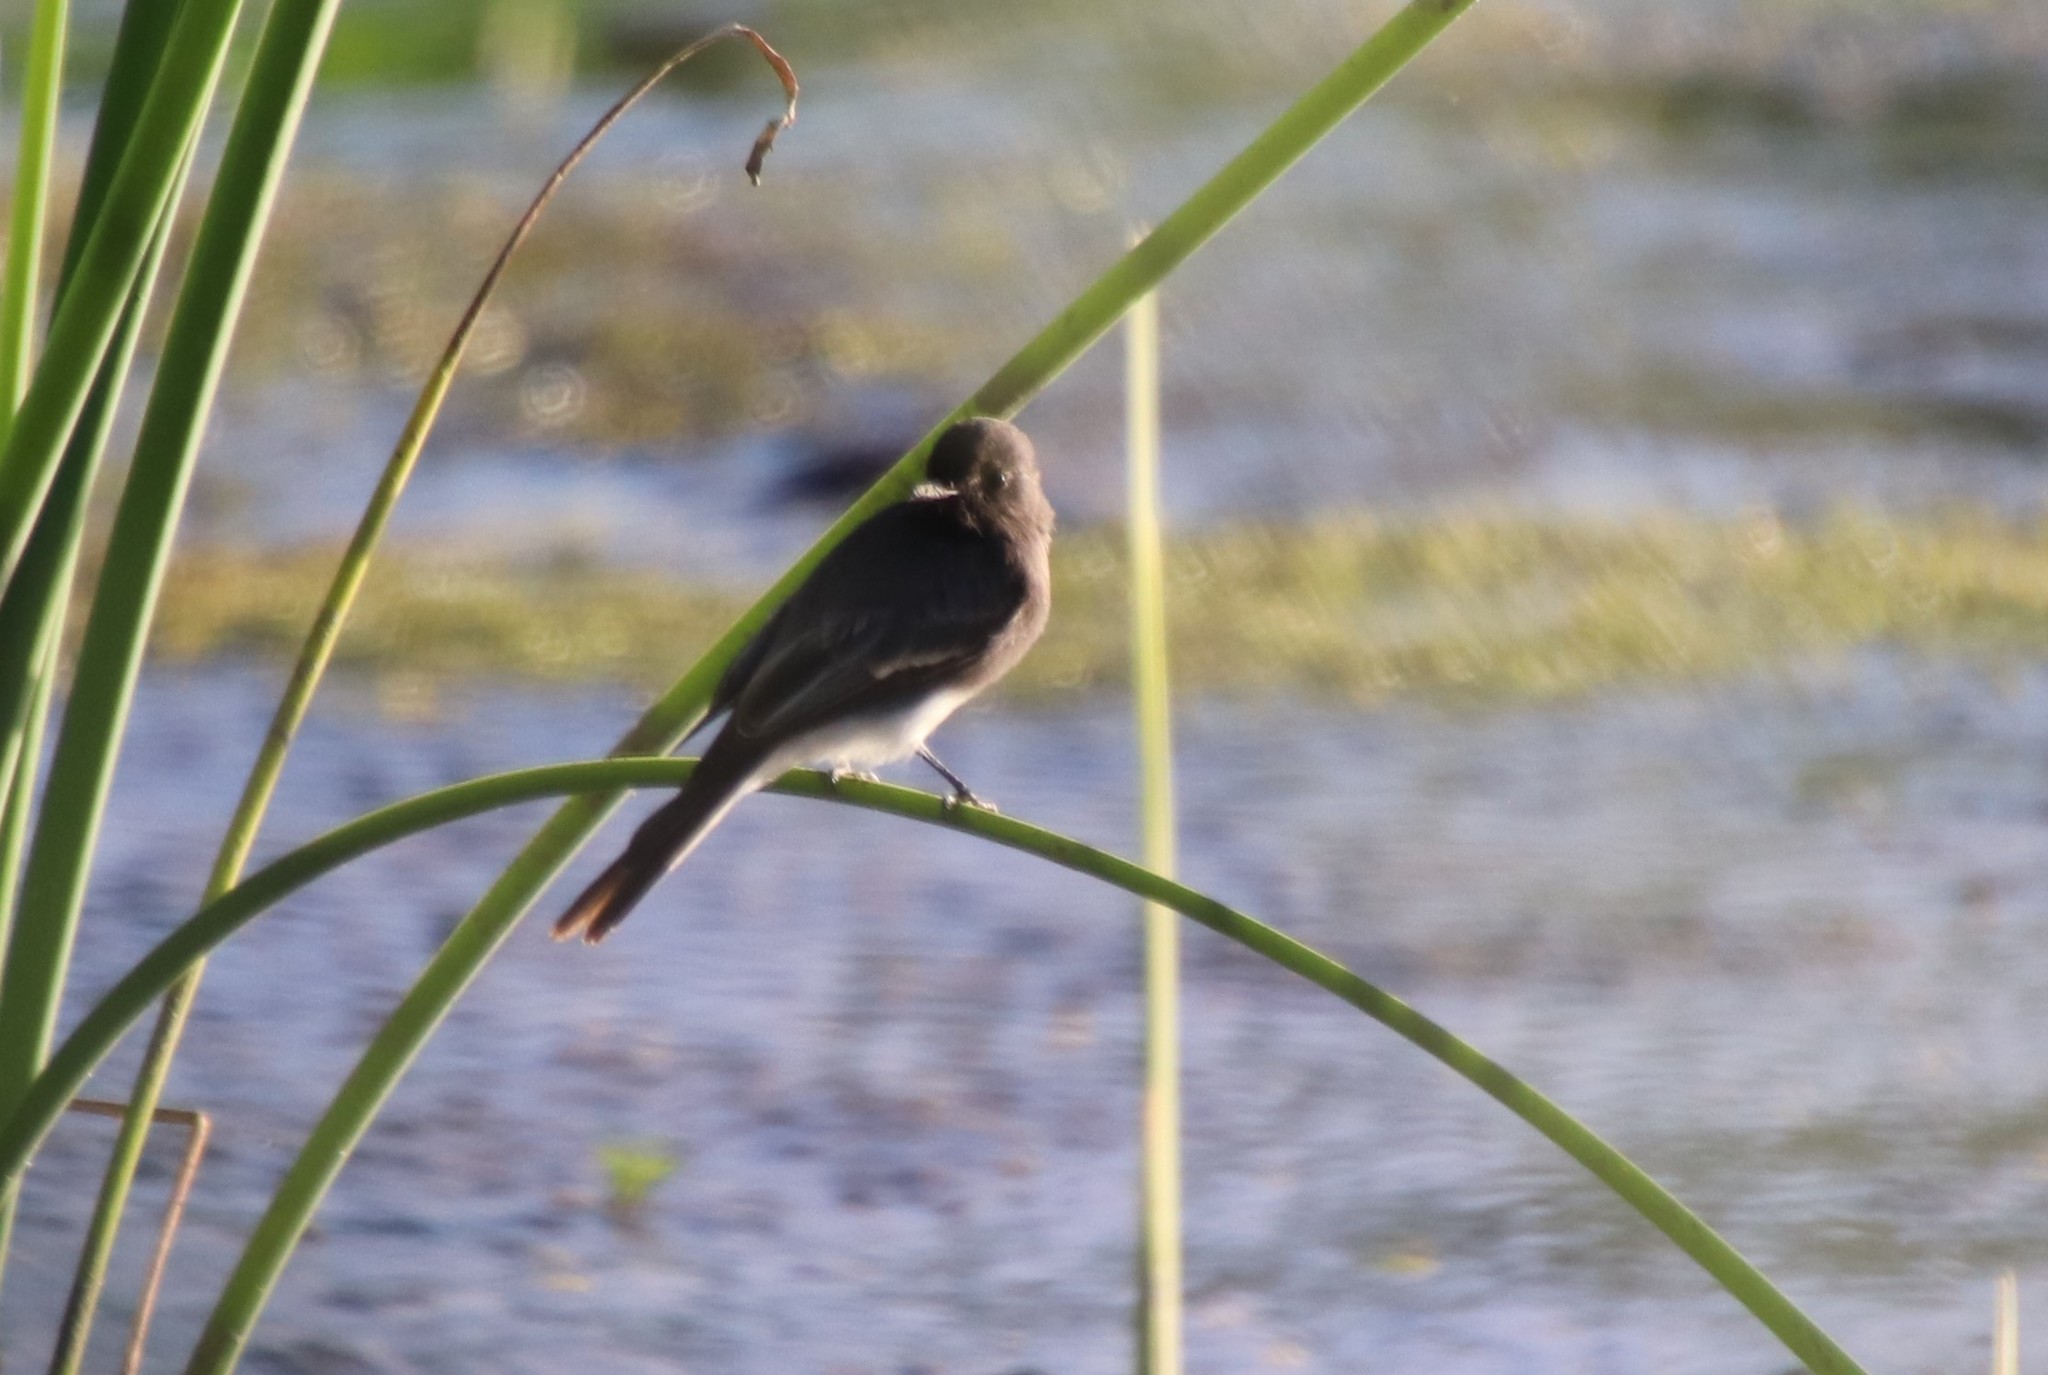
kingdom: Animalia
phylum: Chordata
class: Aves
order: Passeriformes
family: Tyrannidae
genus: Sayornis
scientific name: Sayornis nigricans
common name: Black phoebe
